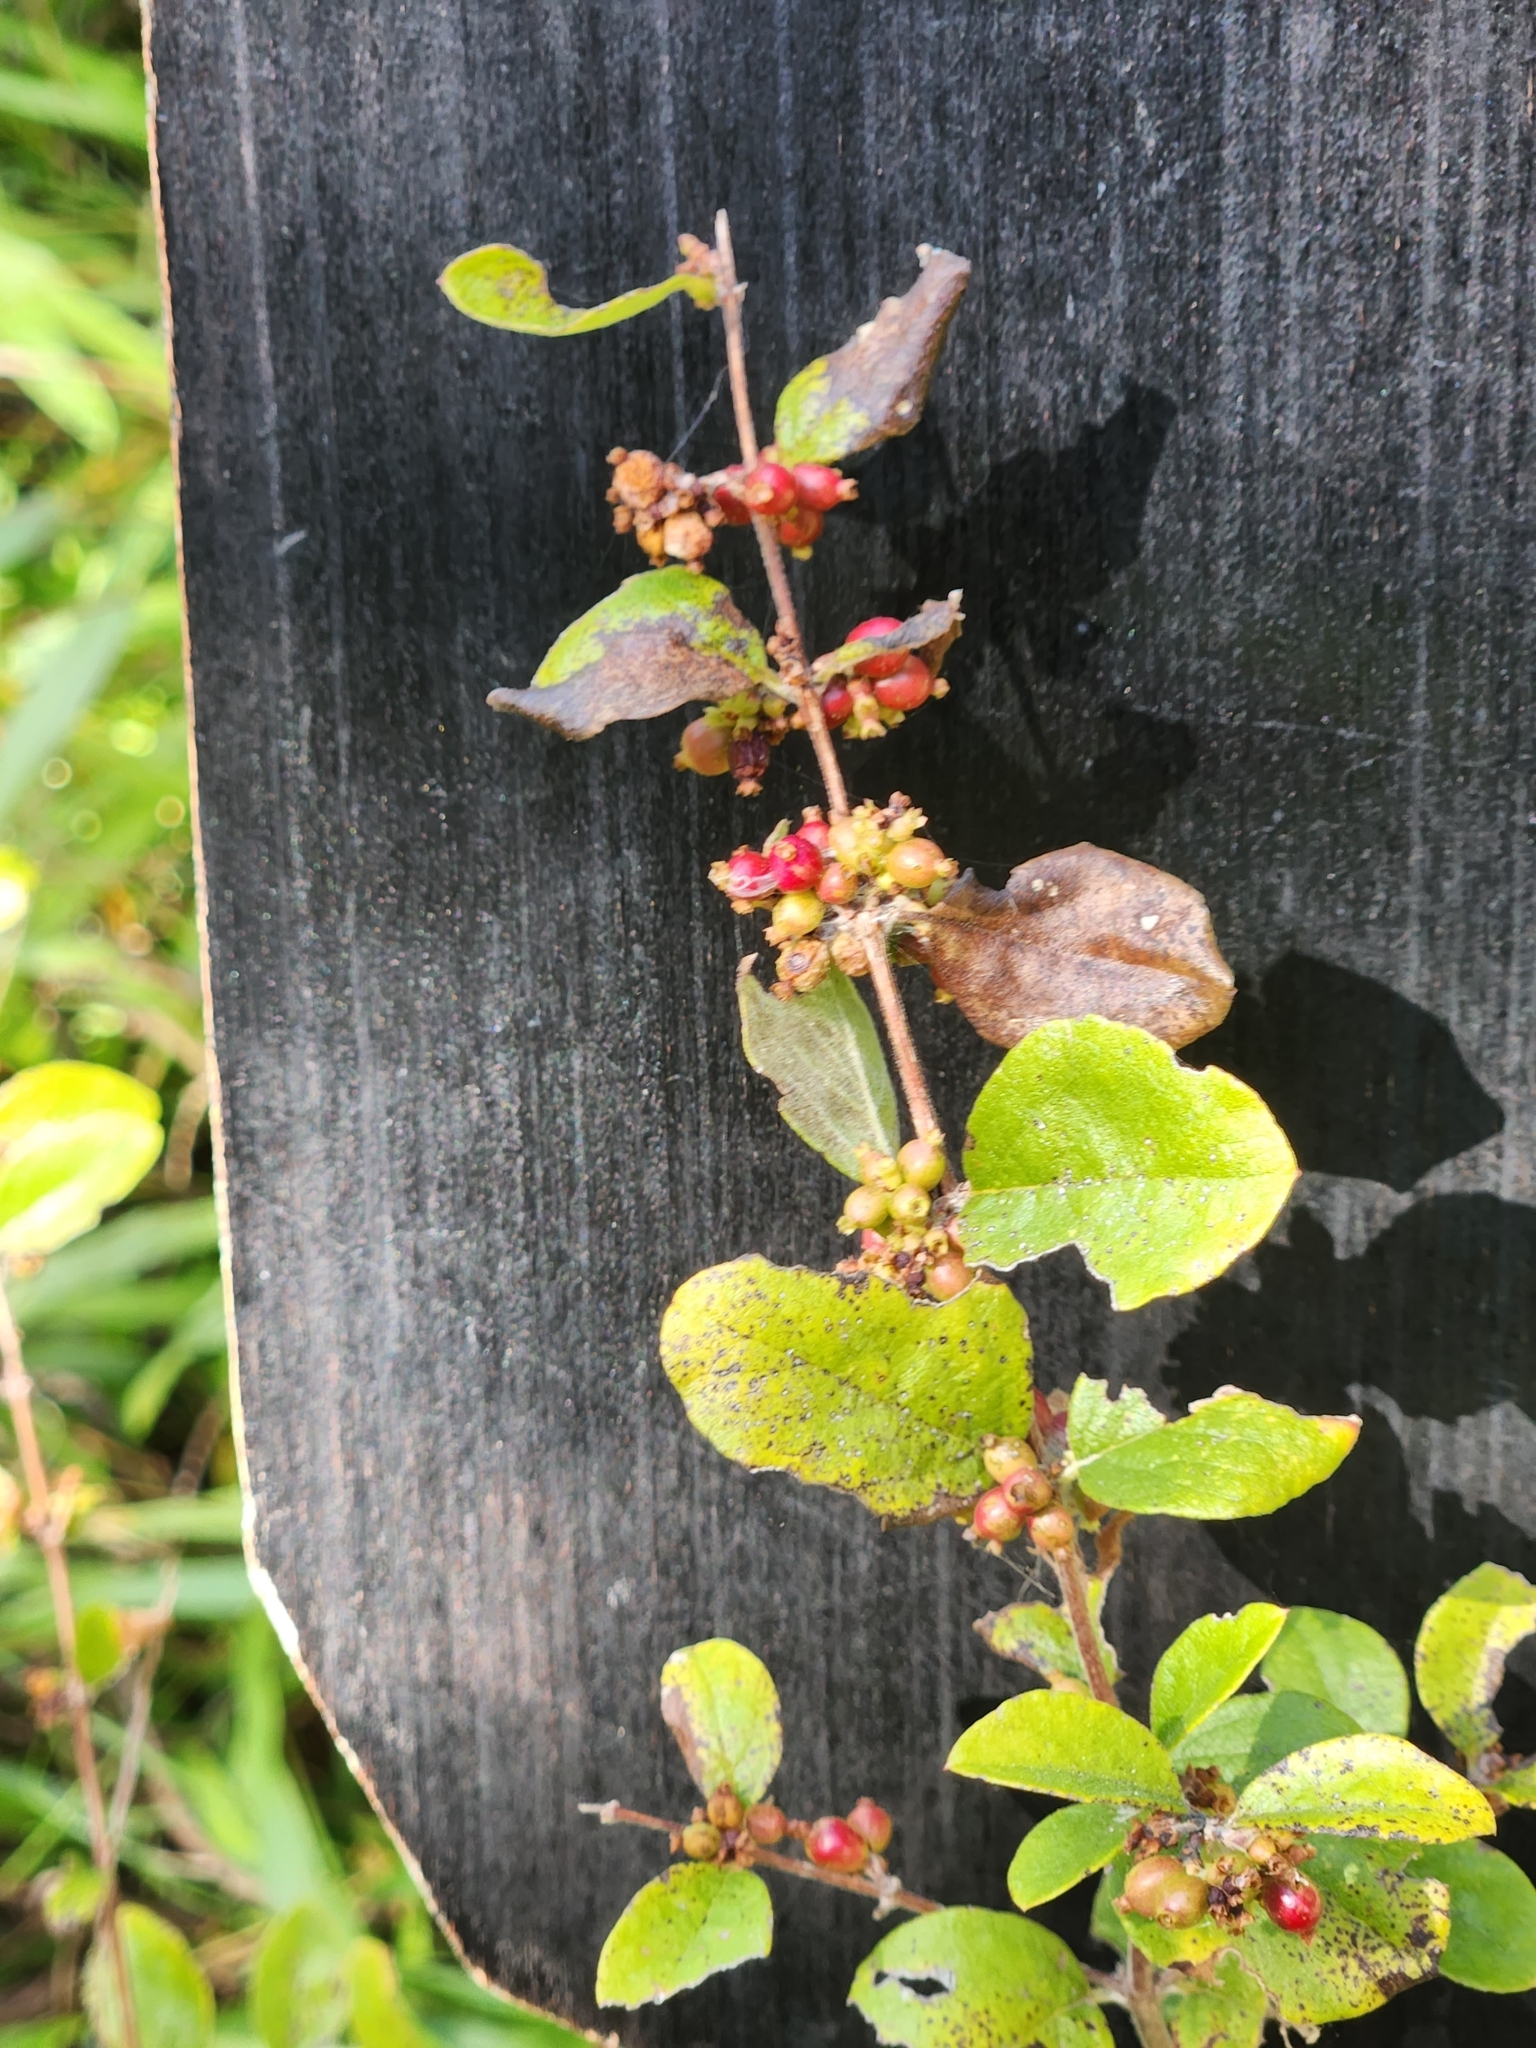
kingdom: Plantae
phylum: Tracheophyta
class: Magnoliopsida
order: Dipsacales
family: Caprifoliaceae
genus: Symphoricarpos
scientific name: Symphoricarpos orbiculatus
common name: Coralberry
